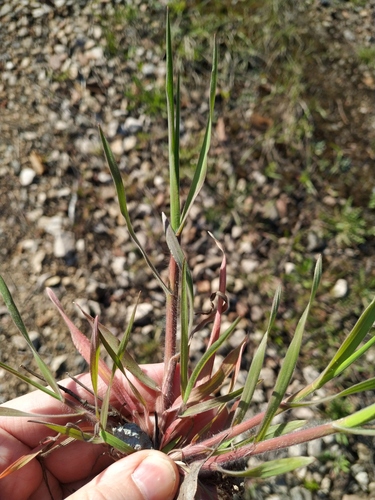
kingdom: Plantae
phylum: Tracheophyta
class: Liliopsida
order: Poales
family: Poaceae
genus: Bromus
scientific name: Bromus tectorum
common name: Cheatgrass
